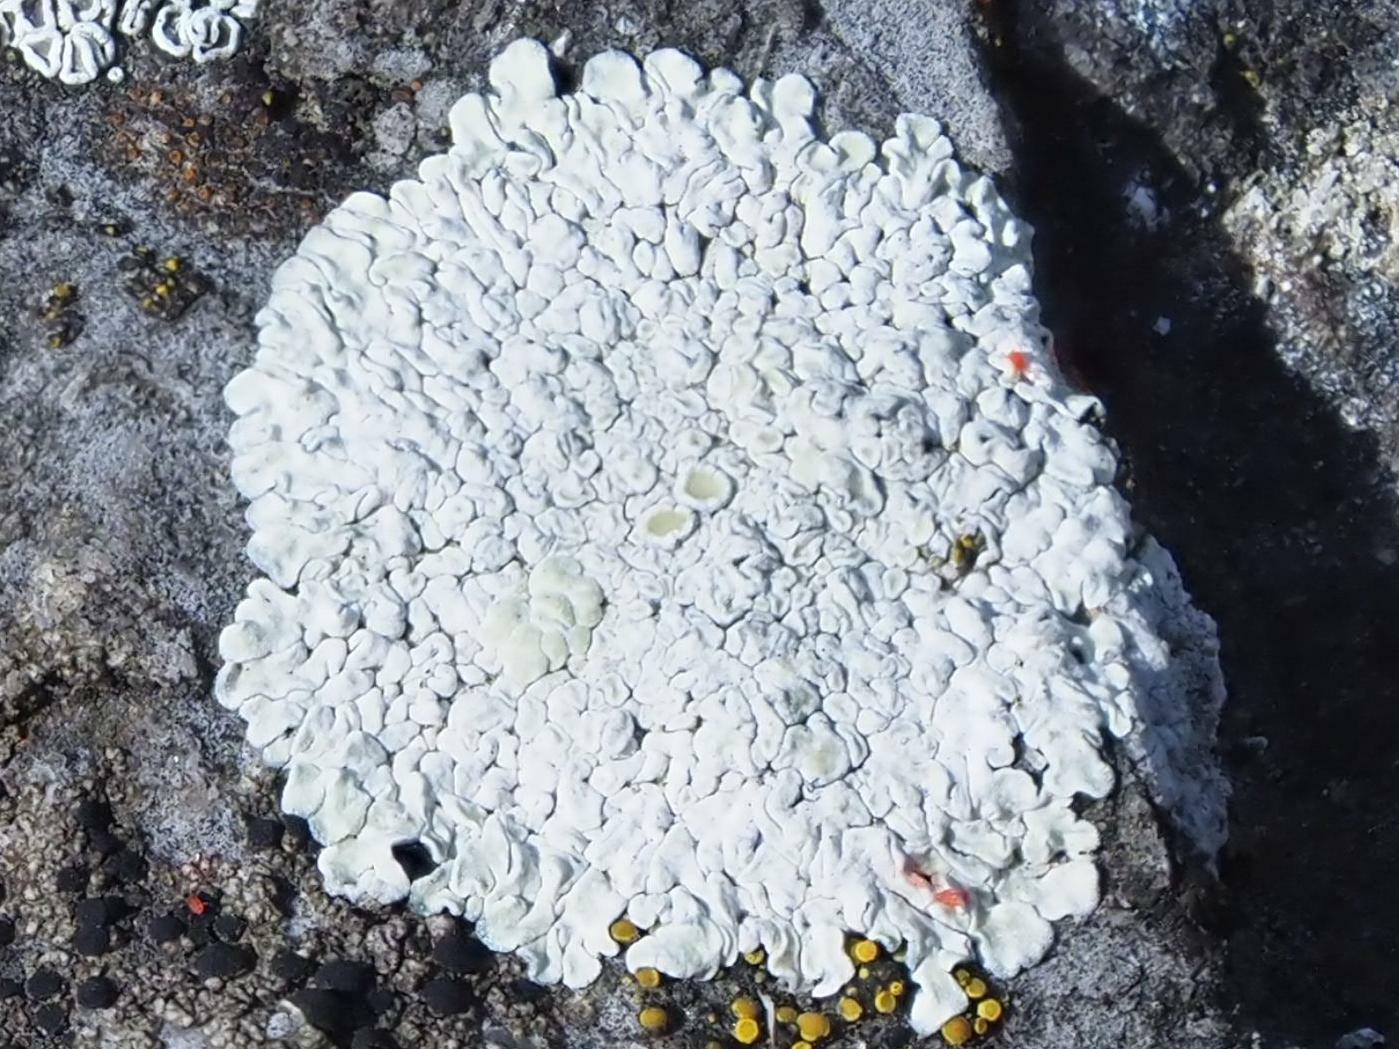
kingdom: Fungi
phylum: Ascomycota
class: Lecanoromycetes
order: Lecanorales
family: Lecanoraceae
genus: Protoparmeliopsis
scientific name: Protoparmeliopsis muralis
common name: Stonewall rim lichen
